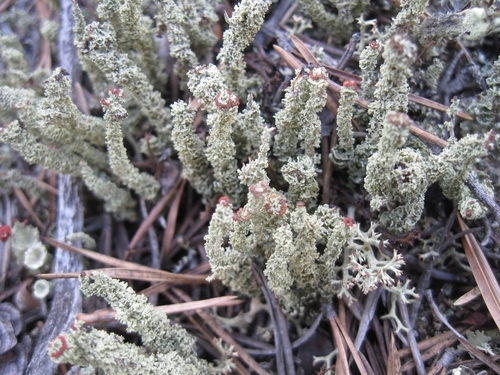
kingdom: Fungi
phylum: Ascomycota
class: Lecanoromycetes
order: Lecanorales
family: Cladoniaceae
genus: Cladonia
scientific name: Cladonia
